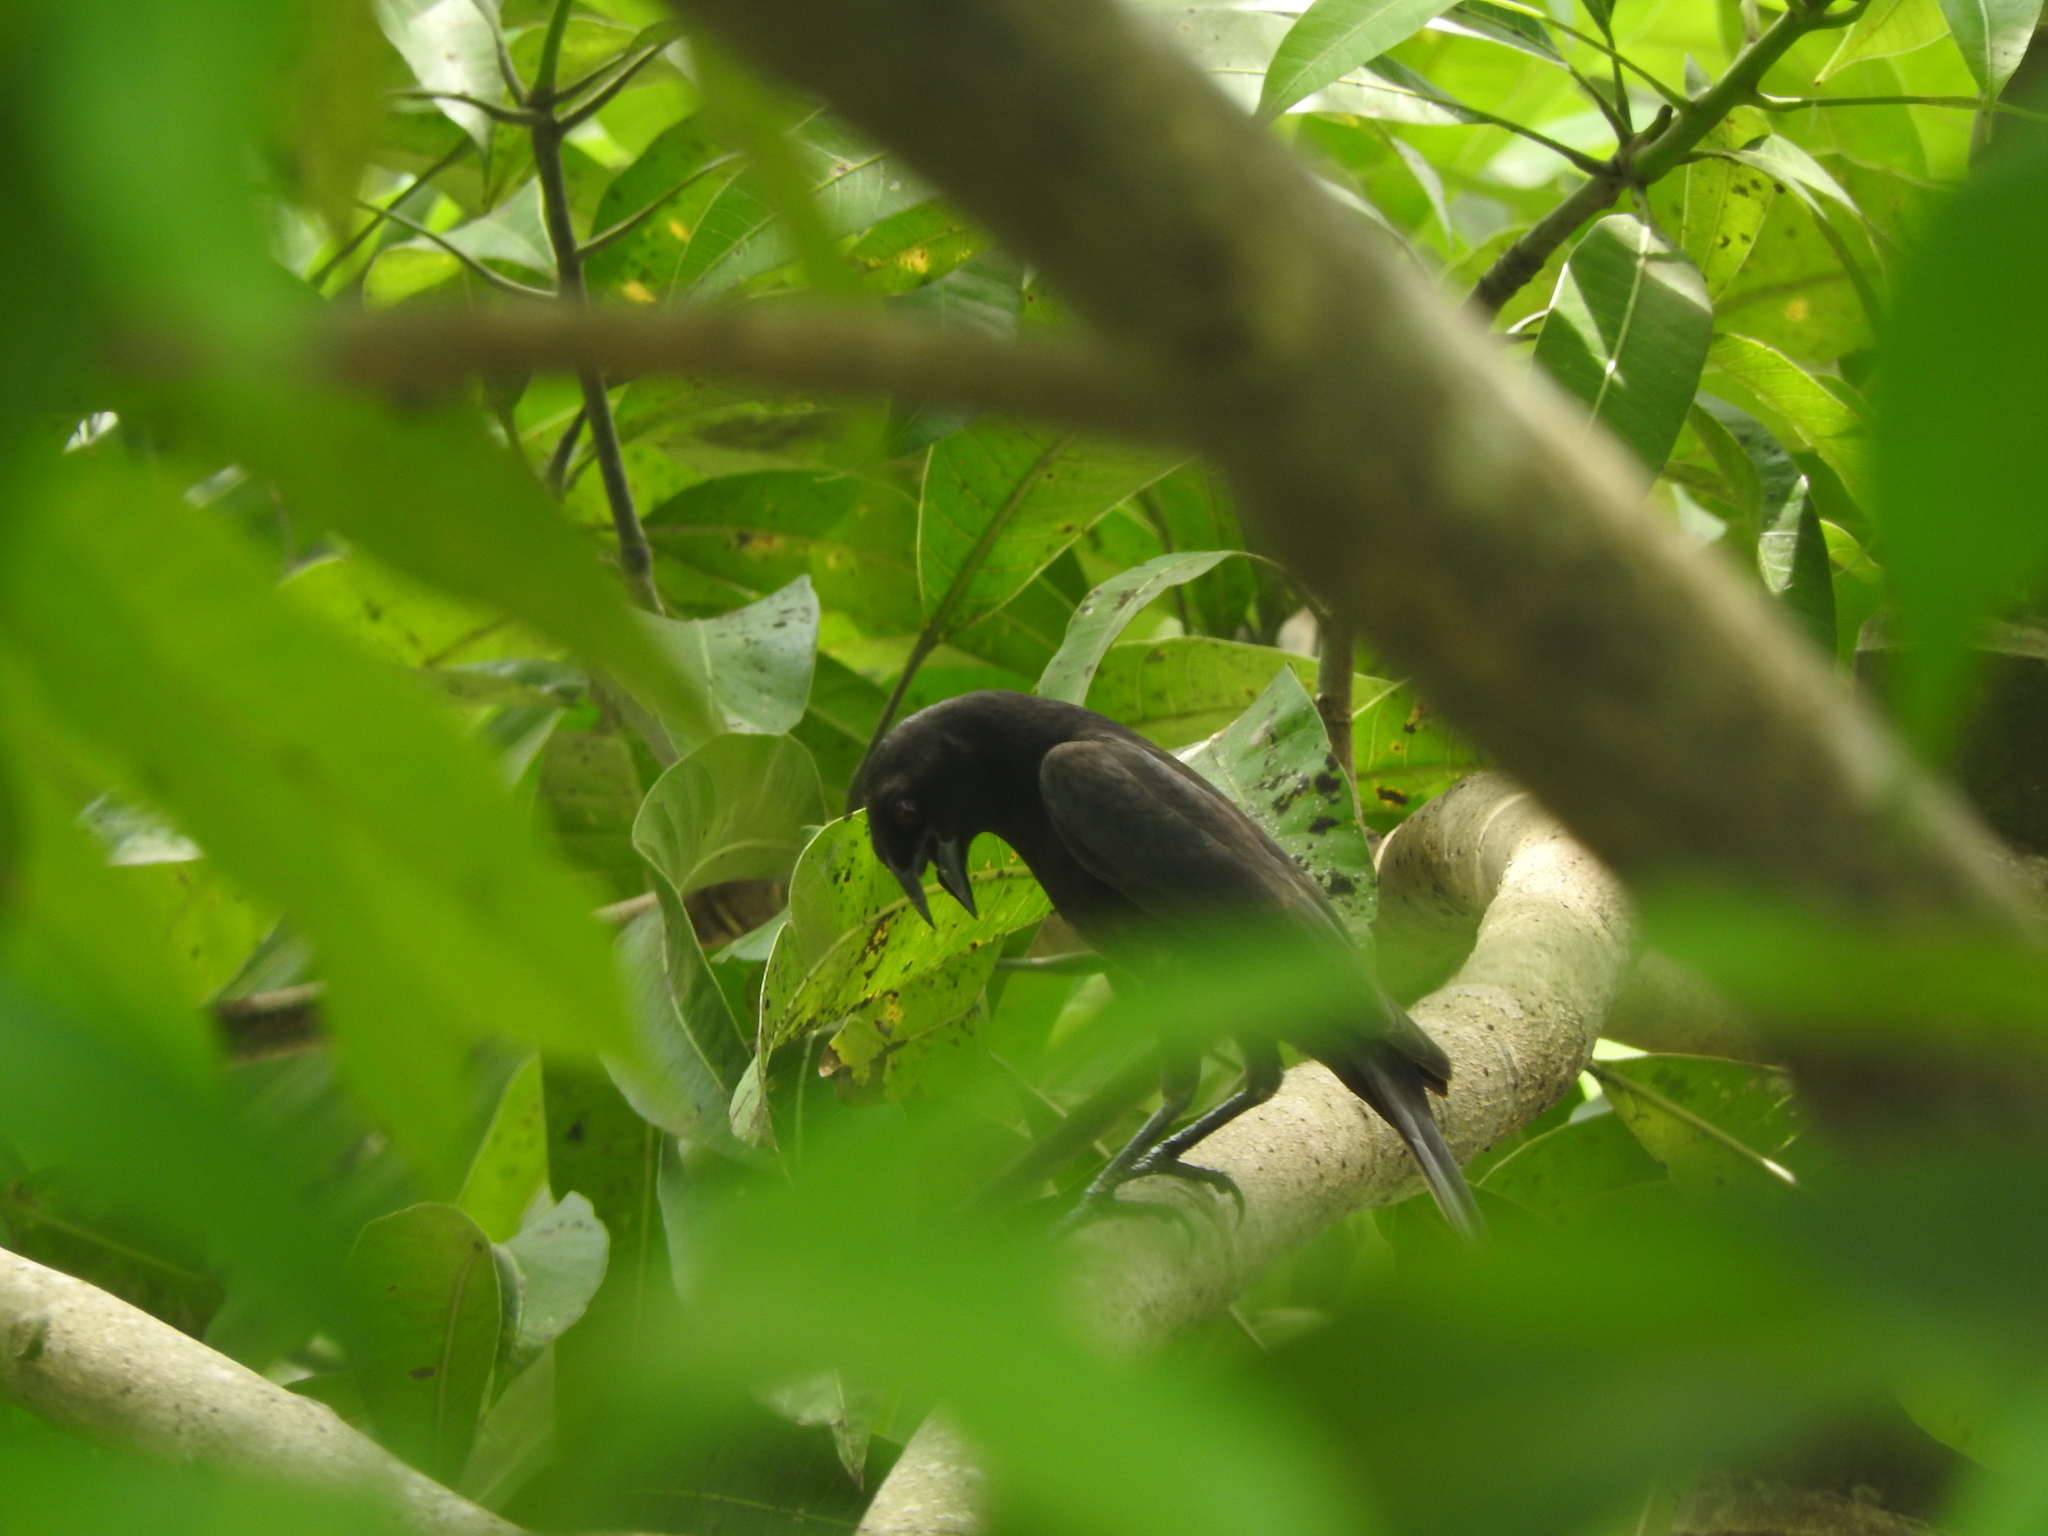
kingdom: Animalia
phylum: Chordata
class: Aves
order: Passeriformes
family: Icteridae
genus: Molothrus
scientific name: Molothrus aeneus
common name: Bronzed cowbird
